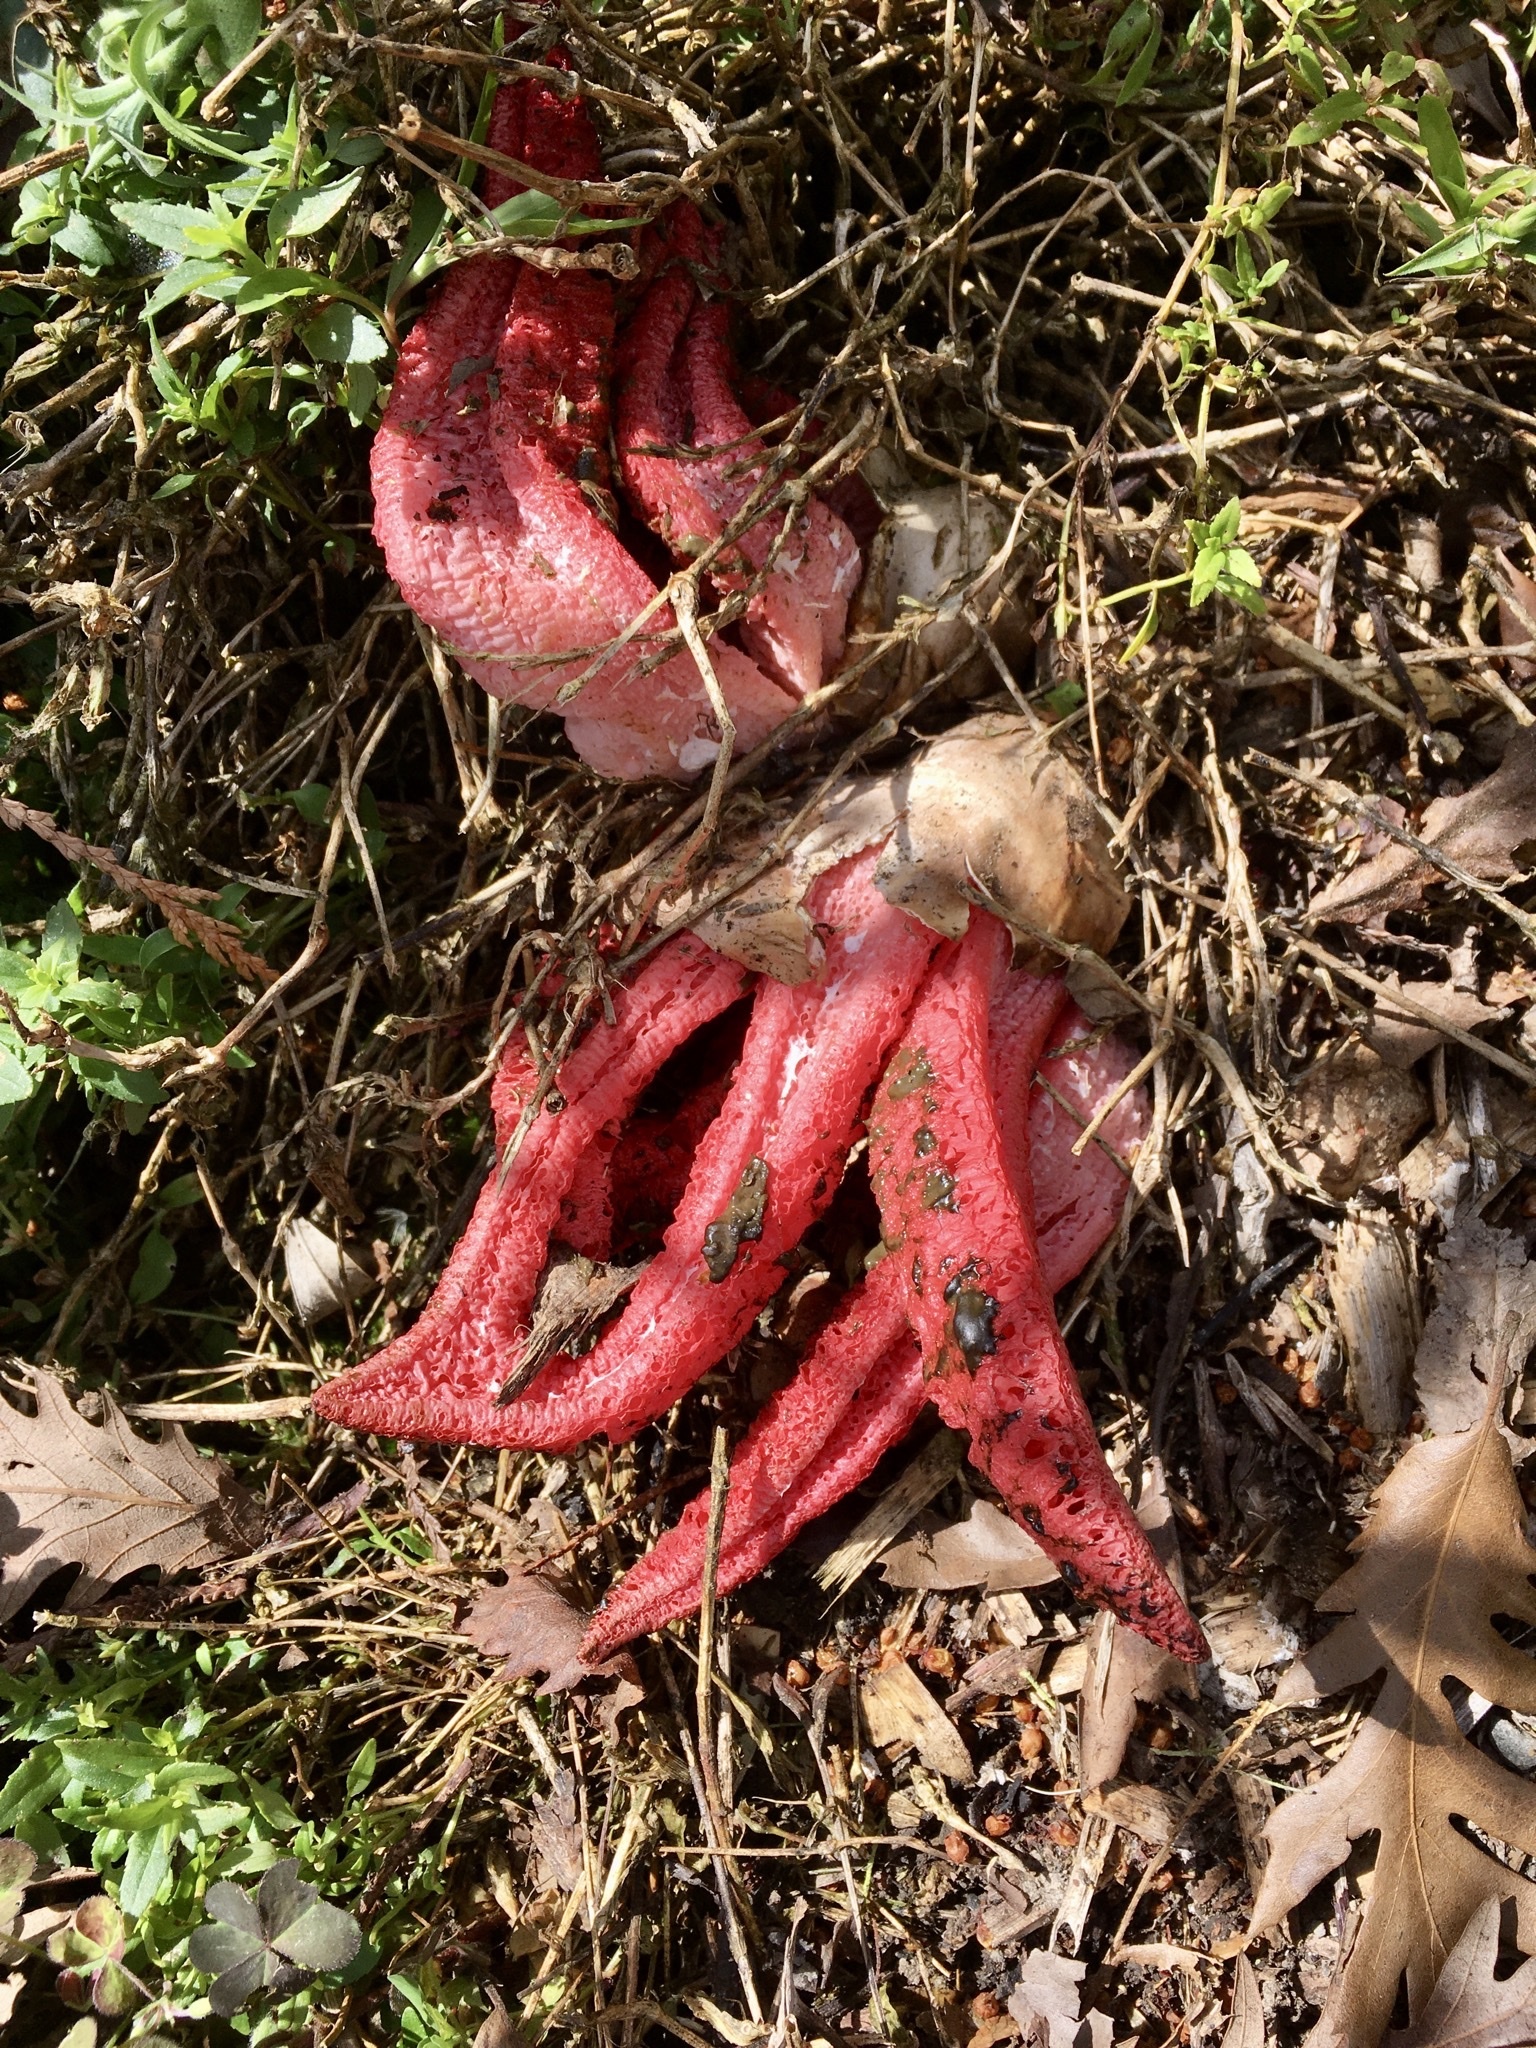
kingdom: Fungi
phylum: Basidiomycota
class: Agaricomycetes
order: Phallales
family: Phallaceae
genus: Clathrus
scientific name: Clathrus archeri
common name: Devil's fingers
